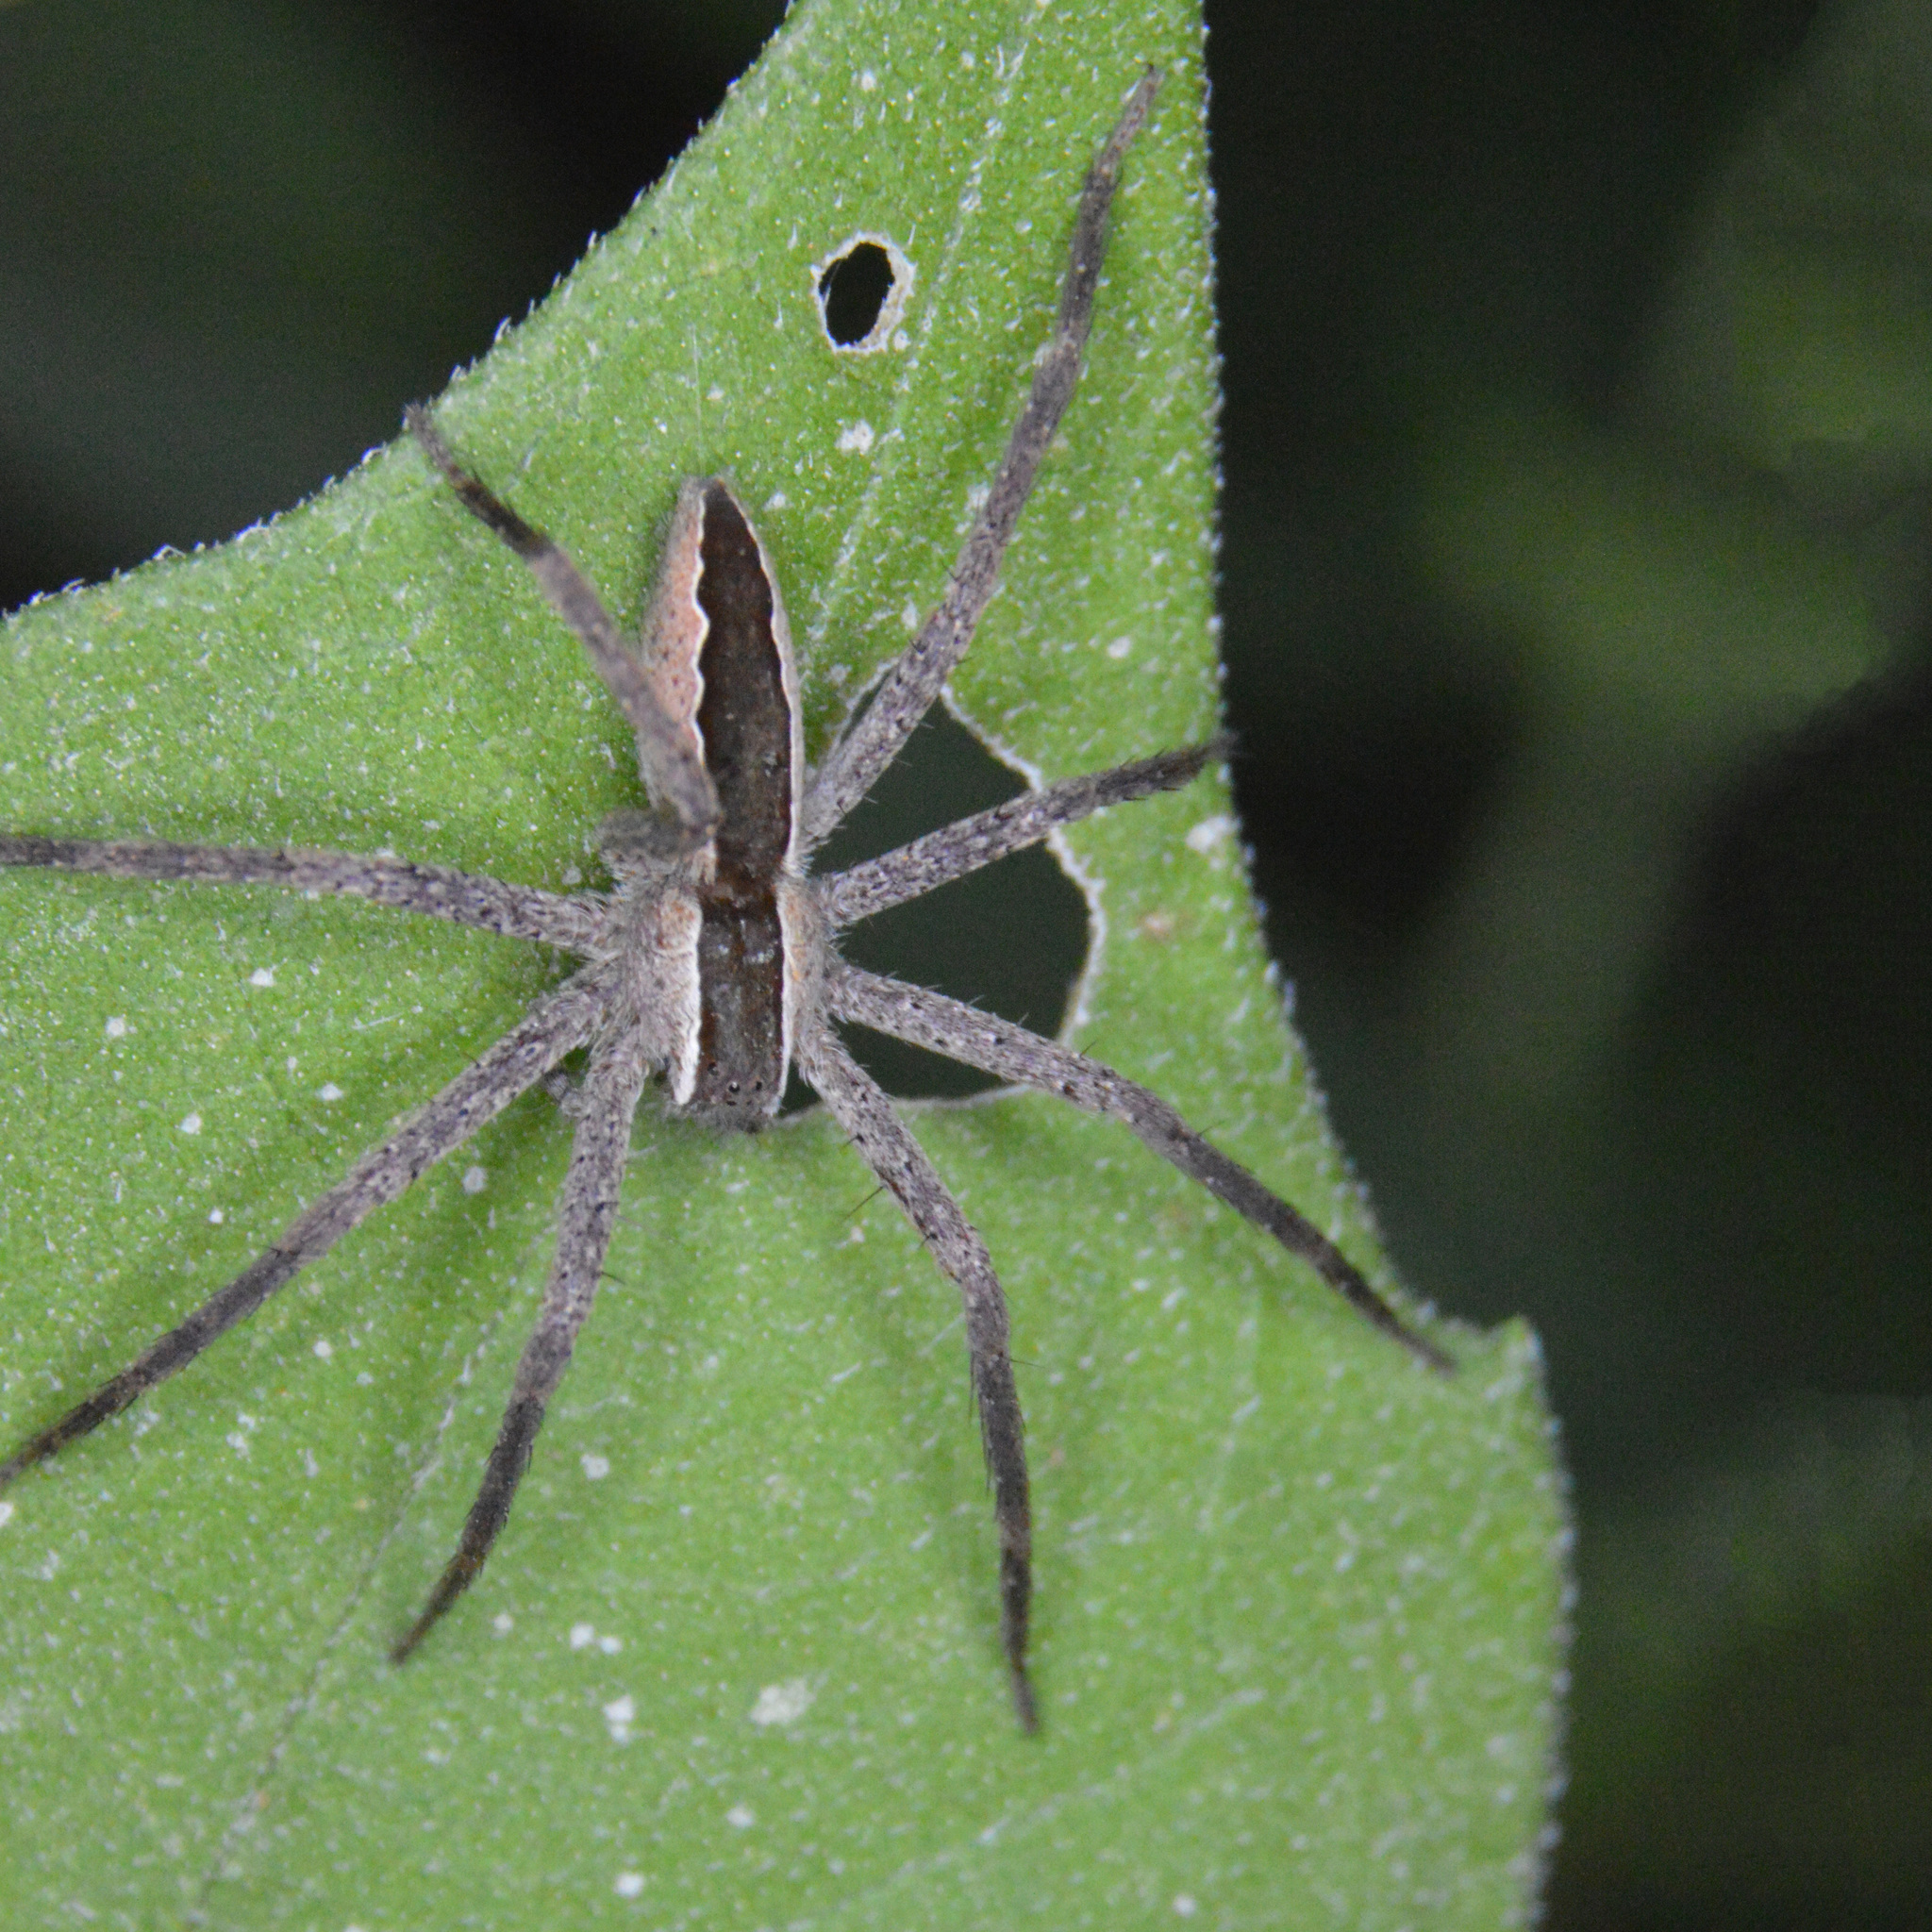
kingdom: Animalia
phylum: Arthropoda
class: Arachnida
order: Araneae
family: Pisauridae
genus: Pisaurina
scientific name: Pisaurina mira
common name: American nursery web spider
